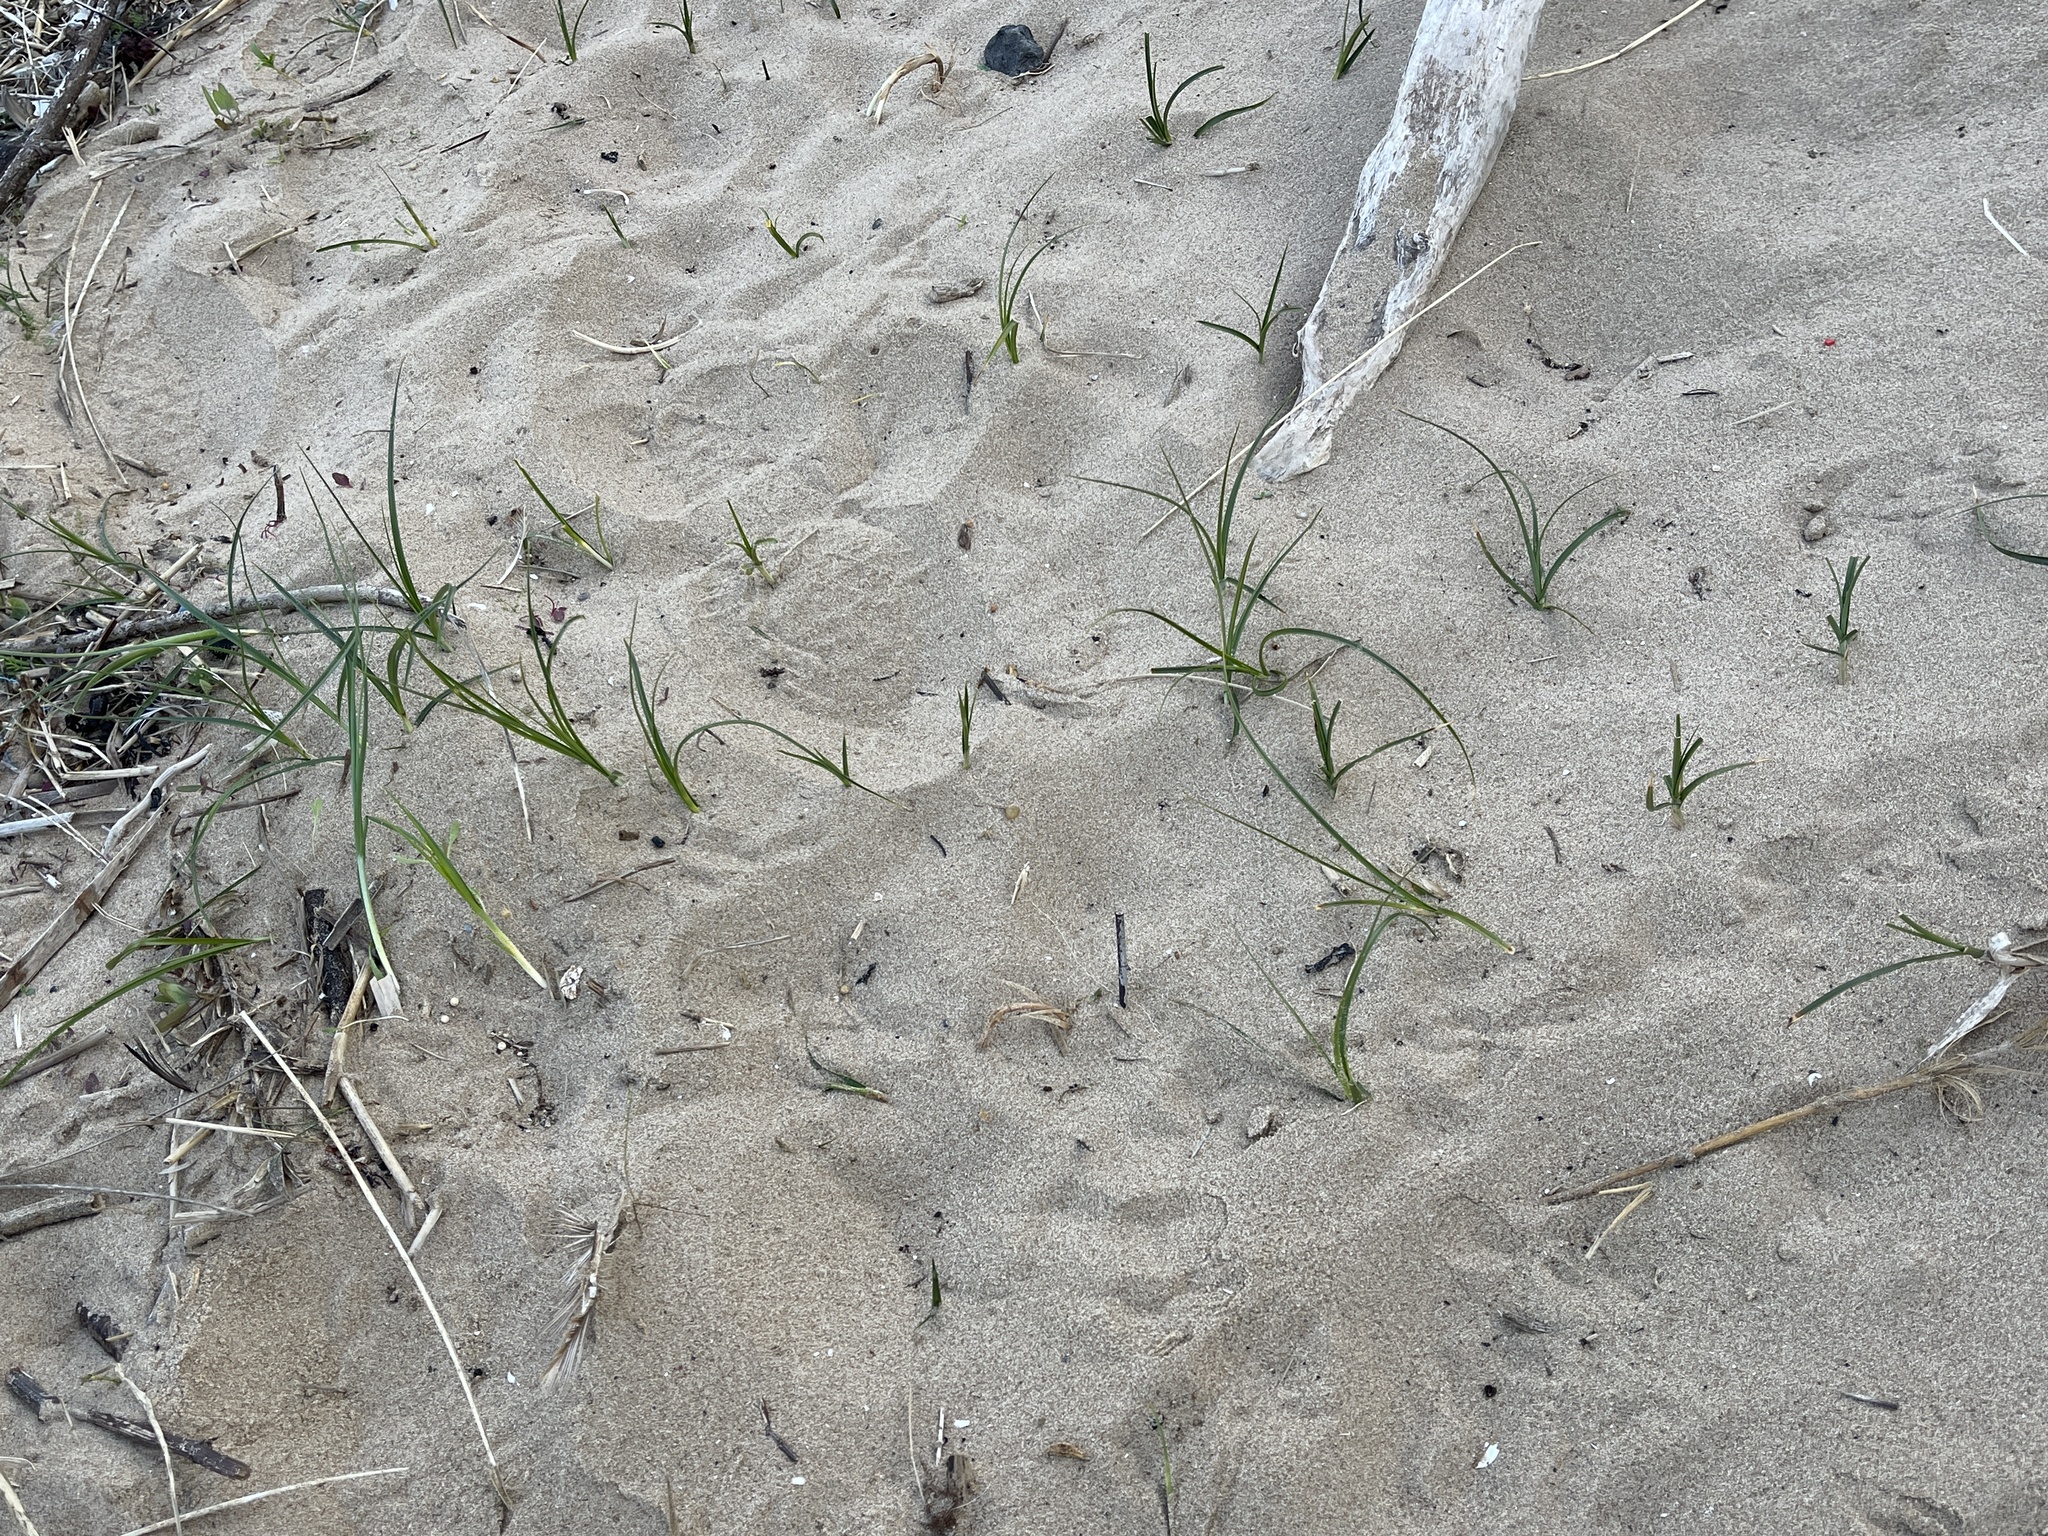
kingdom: Plantae
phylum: Tracheophyta
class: Liliopsida
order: Poales
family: Cyperaceae
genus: Carex
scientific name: Carex arenaria
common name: Sand sedge
